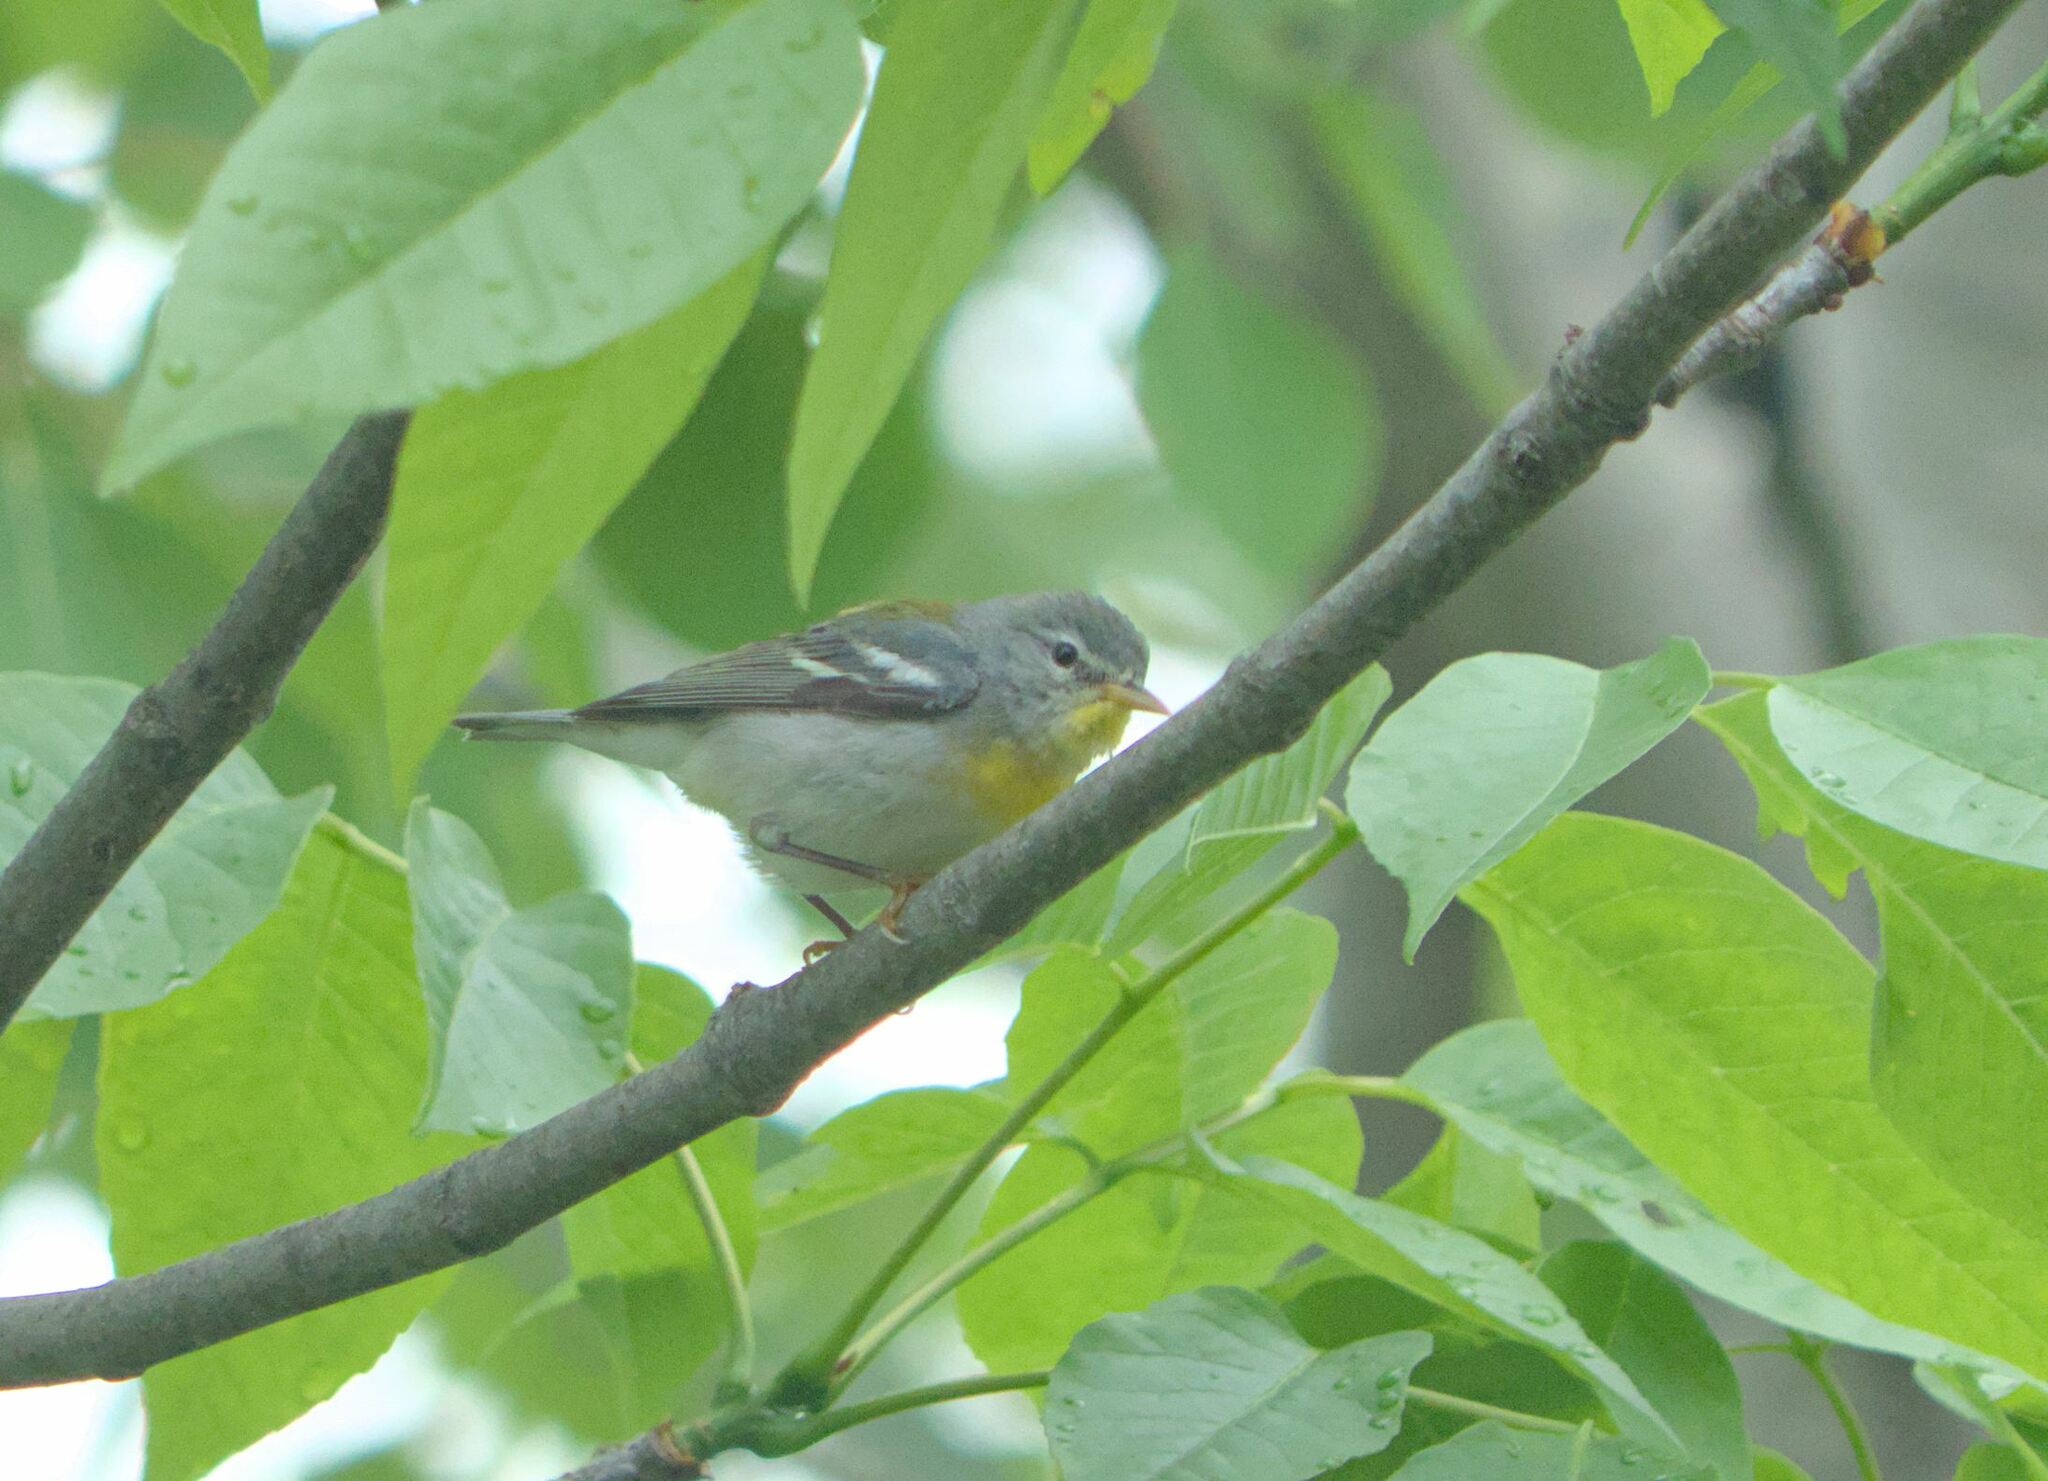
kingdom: Animalia
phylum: Chordata
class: Aves
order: Passeriformes
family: Parulidae
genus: Setophaga
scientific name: Setophaga americana
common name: Northern parula
